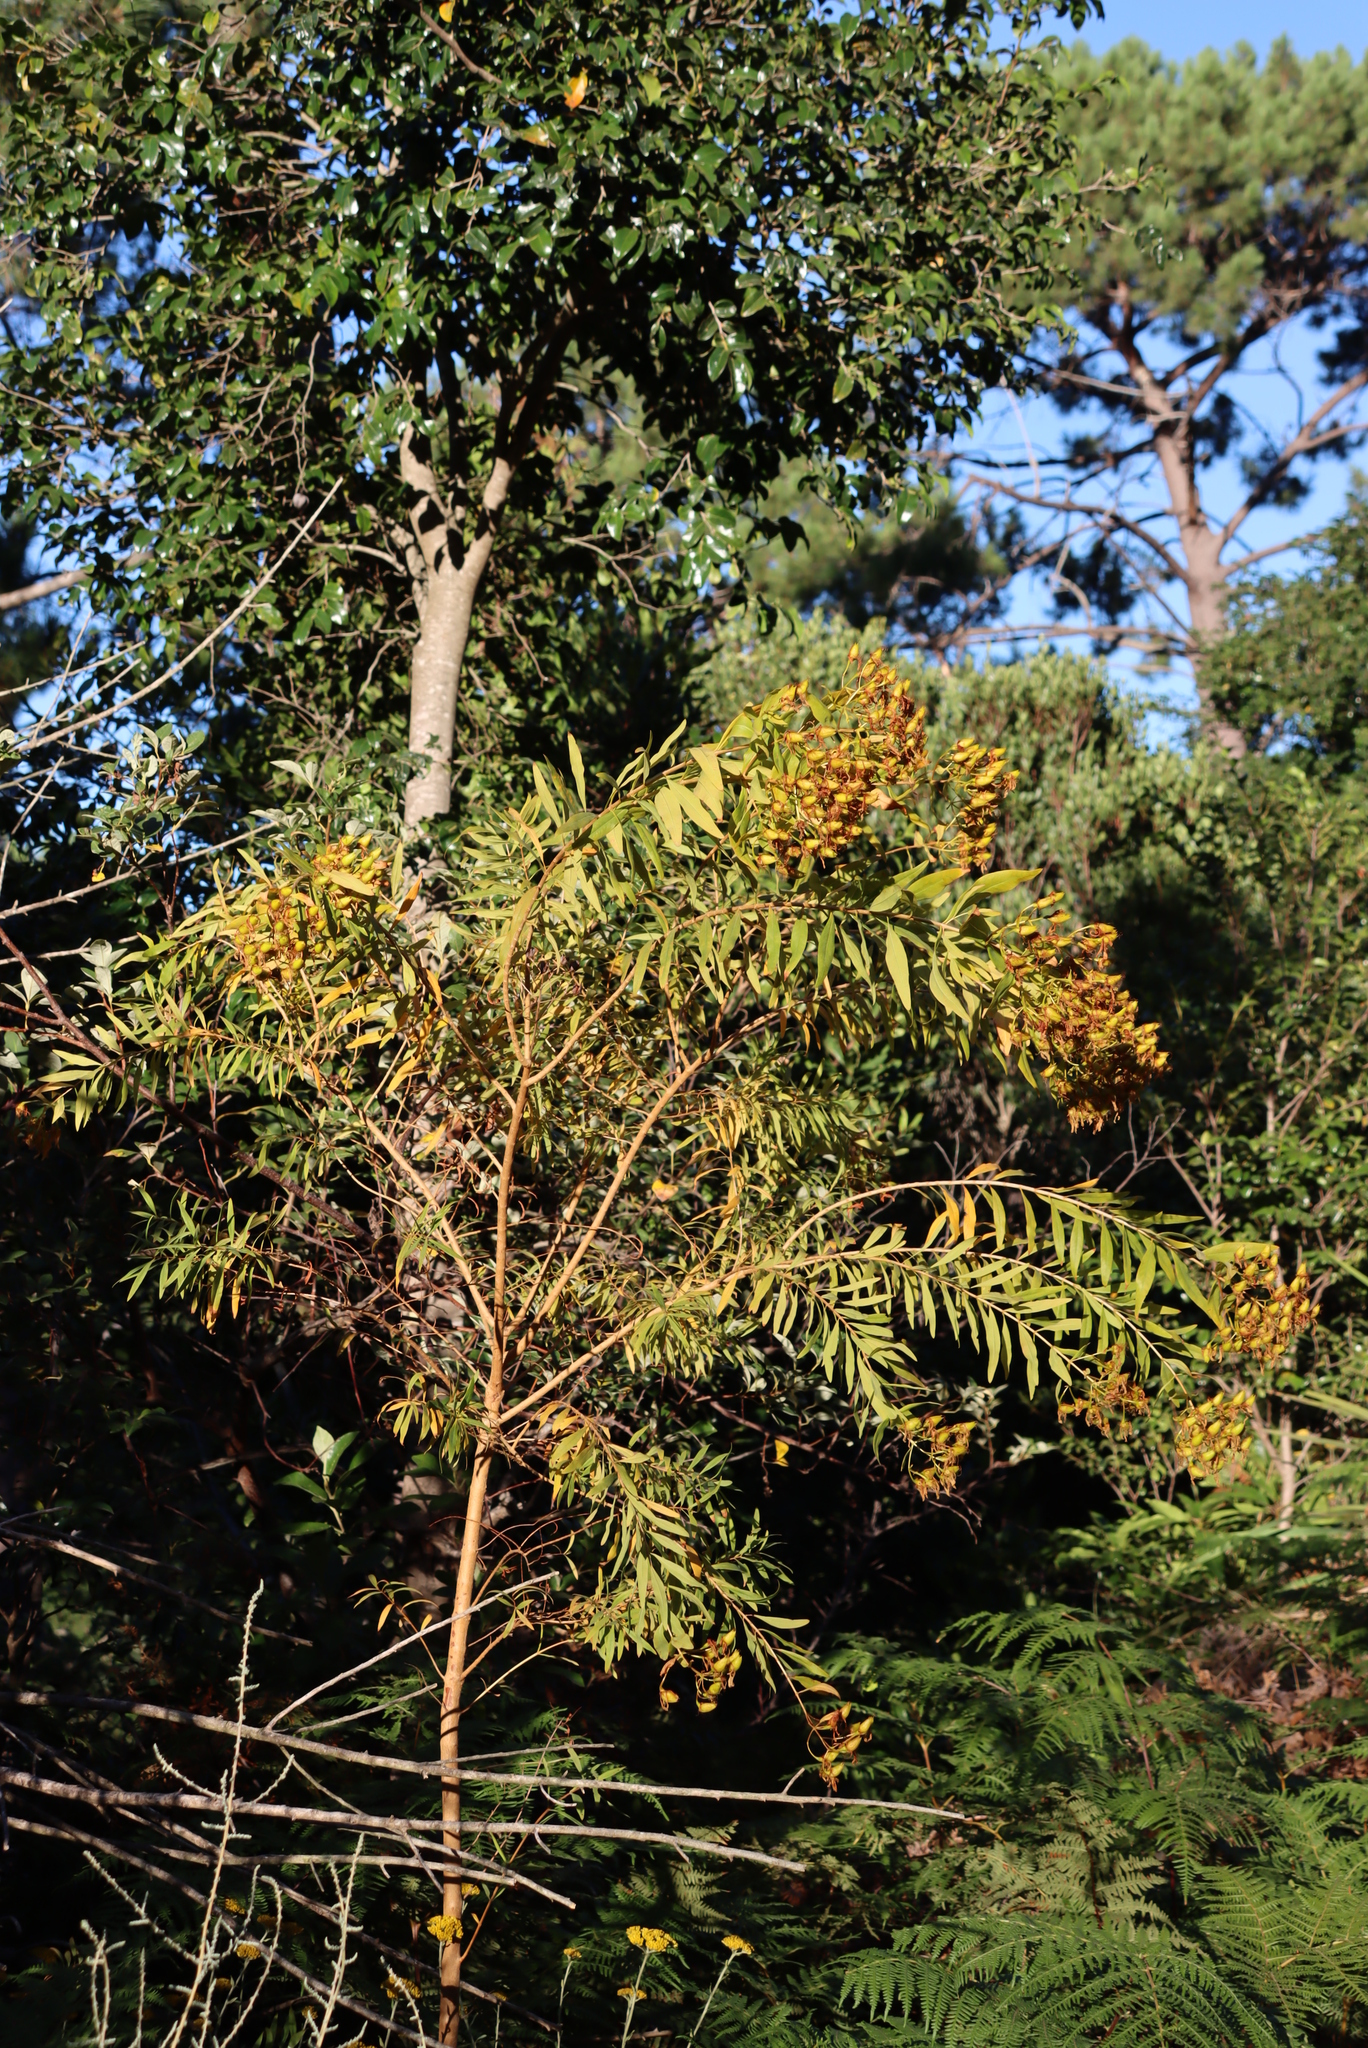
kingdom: Plantae
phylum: Tracheophyta
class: Magnoliopsida
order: Malpighiales
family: Hypericaceae
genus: Hypericum
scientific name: Hypericum canariense
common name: Canary island st. johnswort
